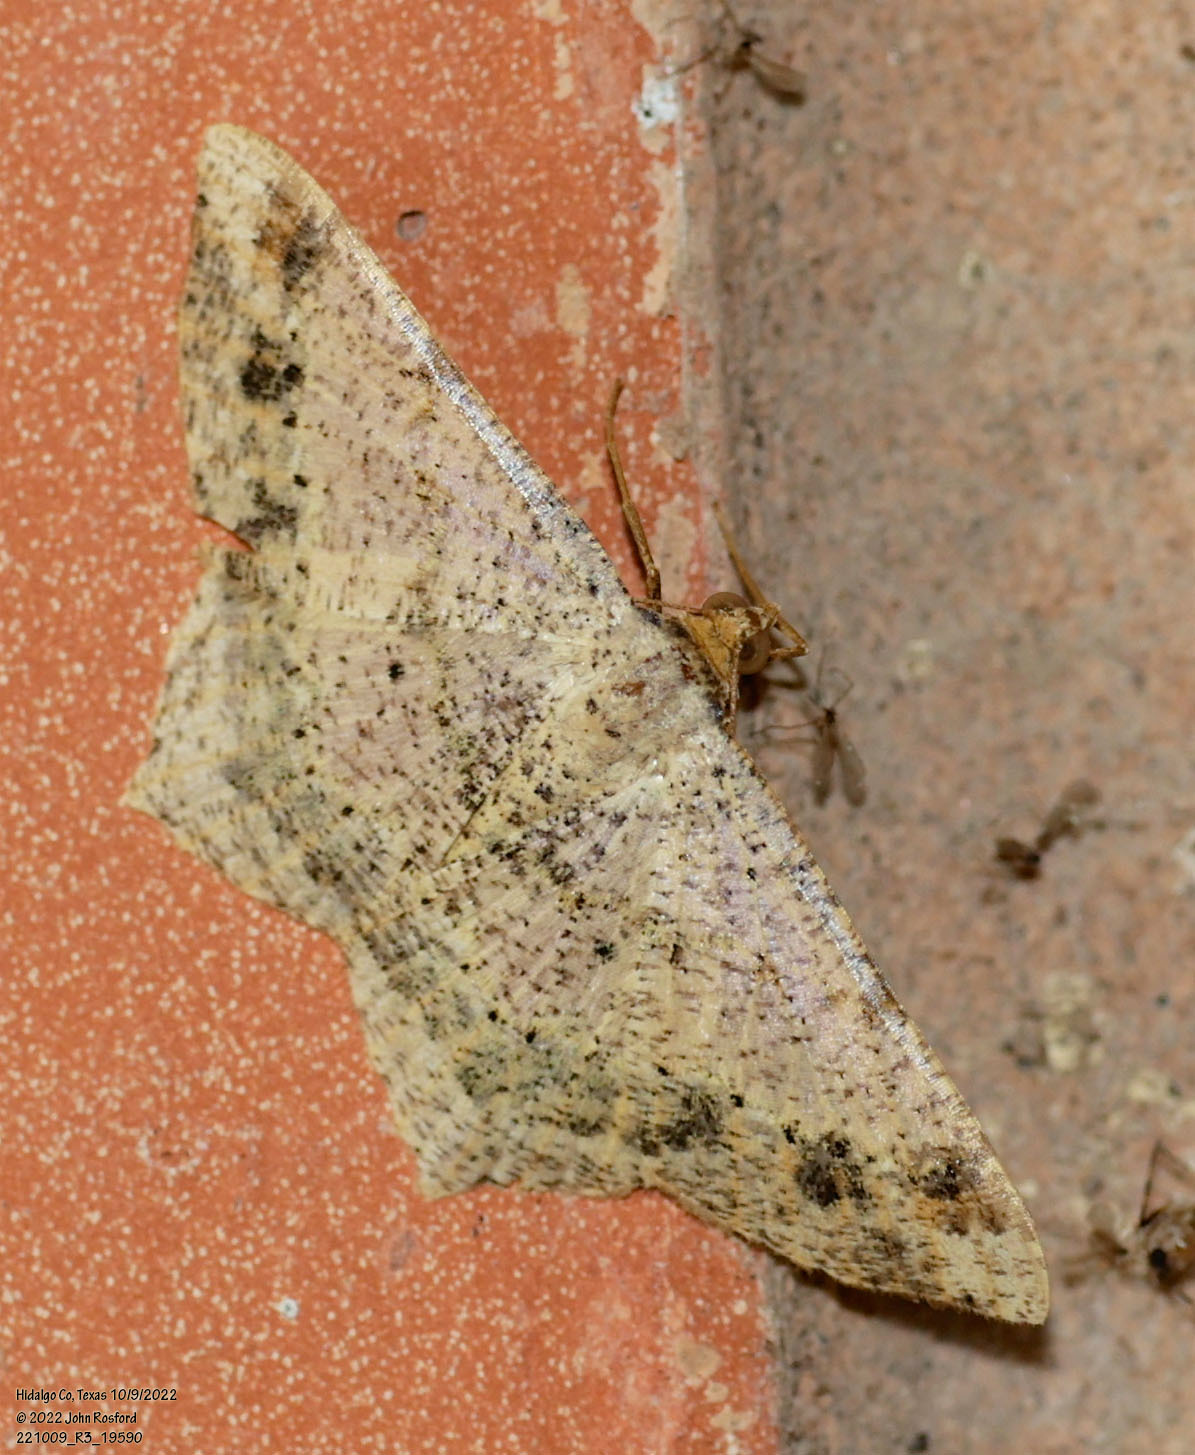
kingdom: Animalia
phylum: Arthropoda
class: Insecta
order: Lepidoptera
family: Geometridae
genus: Macaria
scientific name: Macaria abydata
